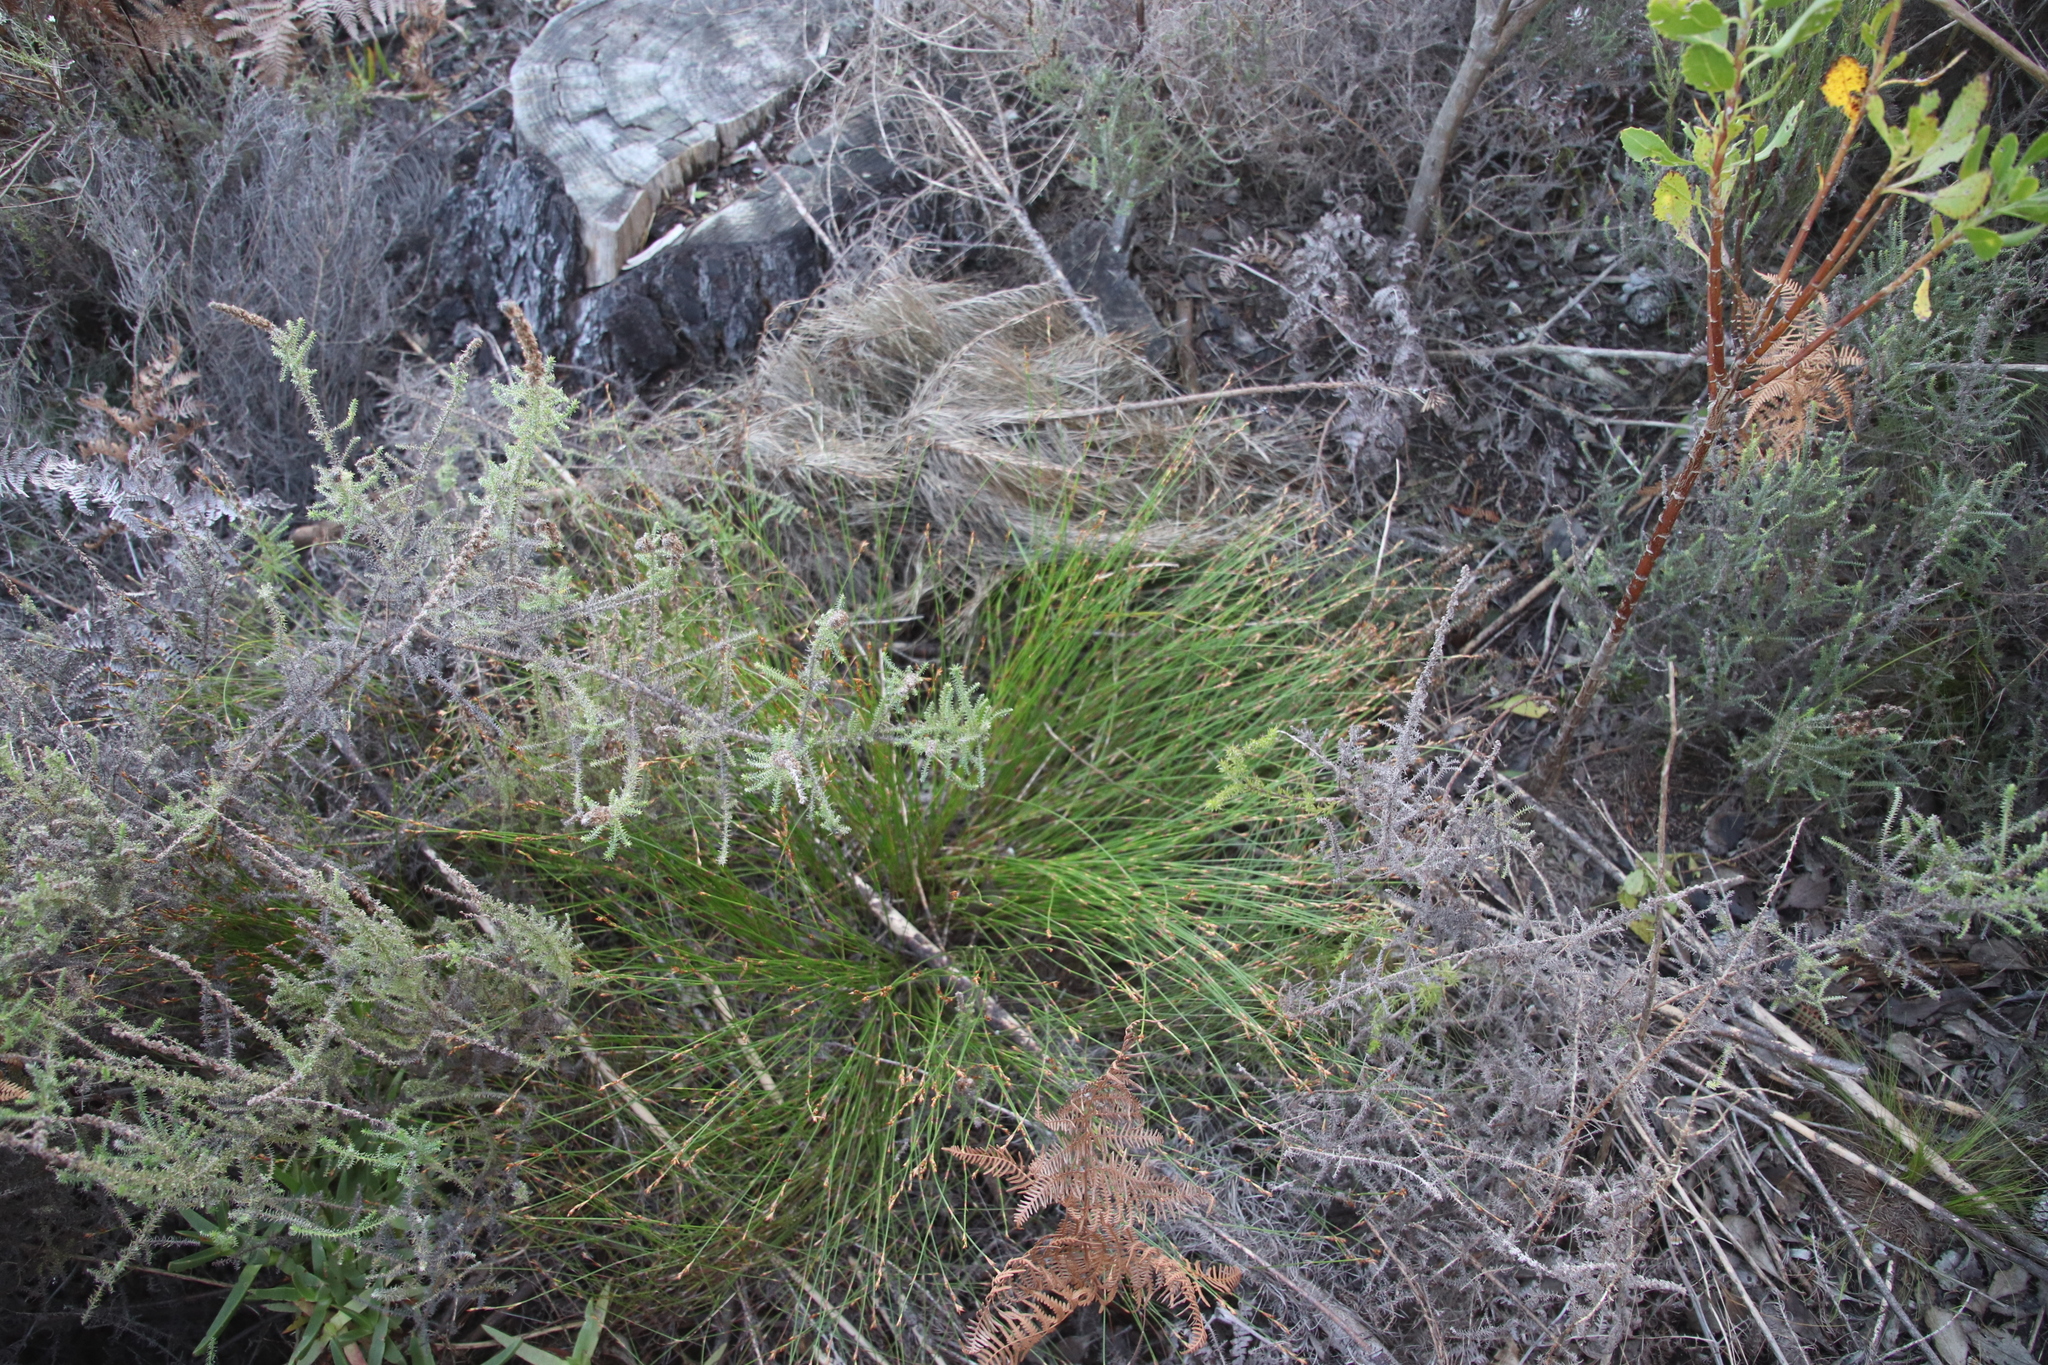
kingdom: Plantae
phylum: Tracheophyta
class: Liliopsida
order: Poales
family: Restionaceae
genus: Mastersiella
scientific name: Mastersiella digitata
